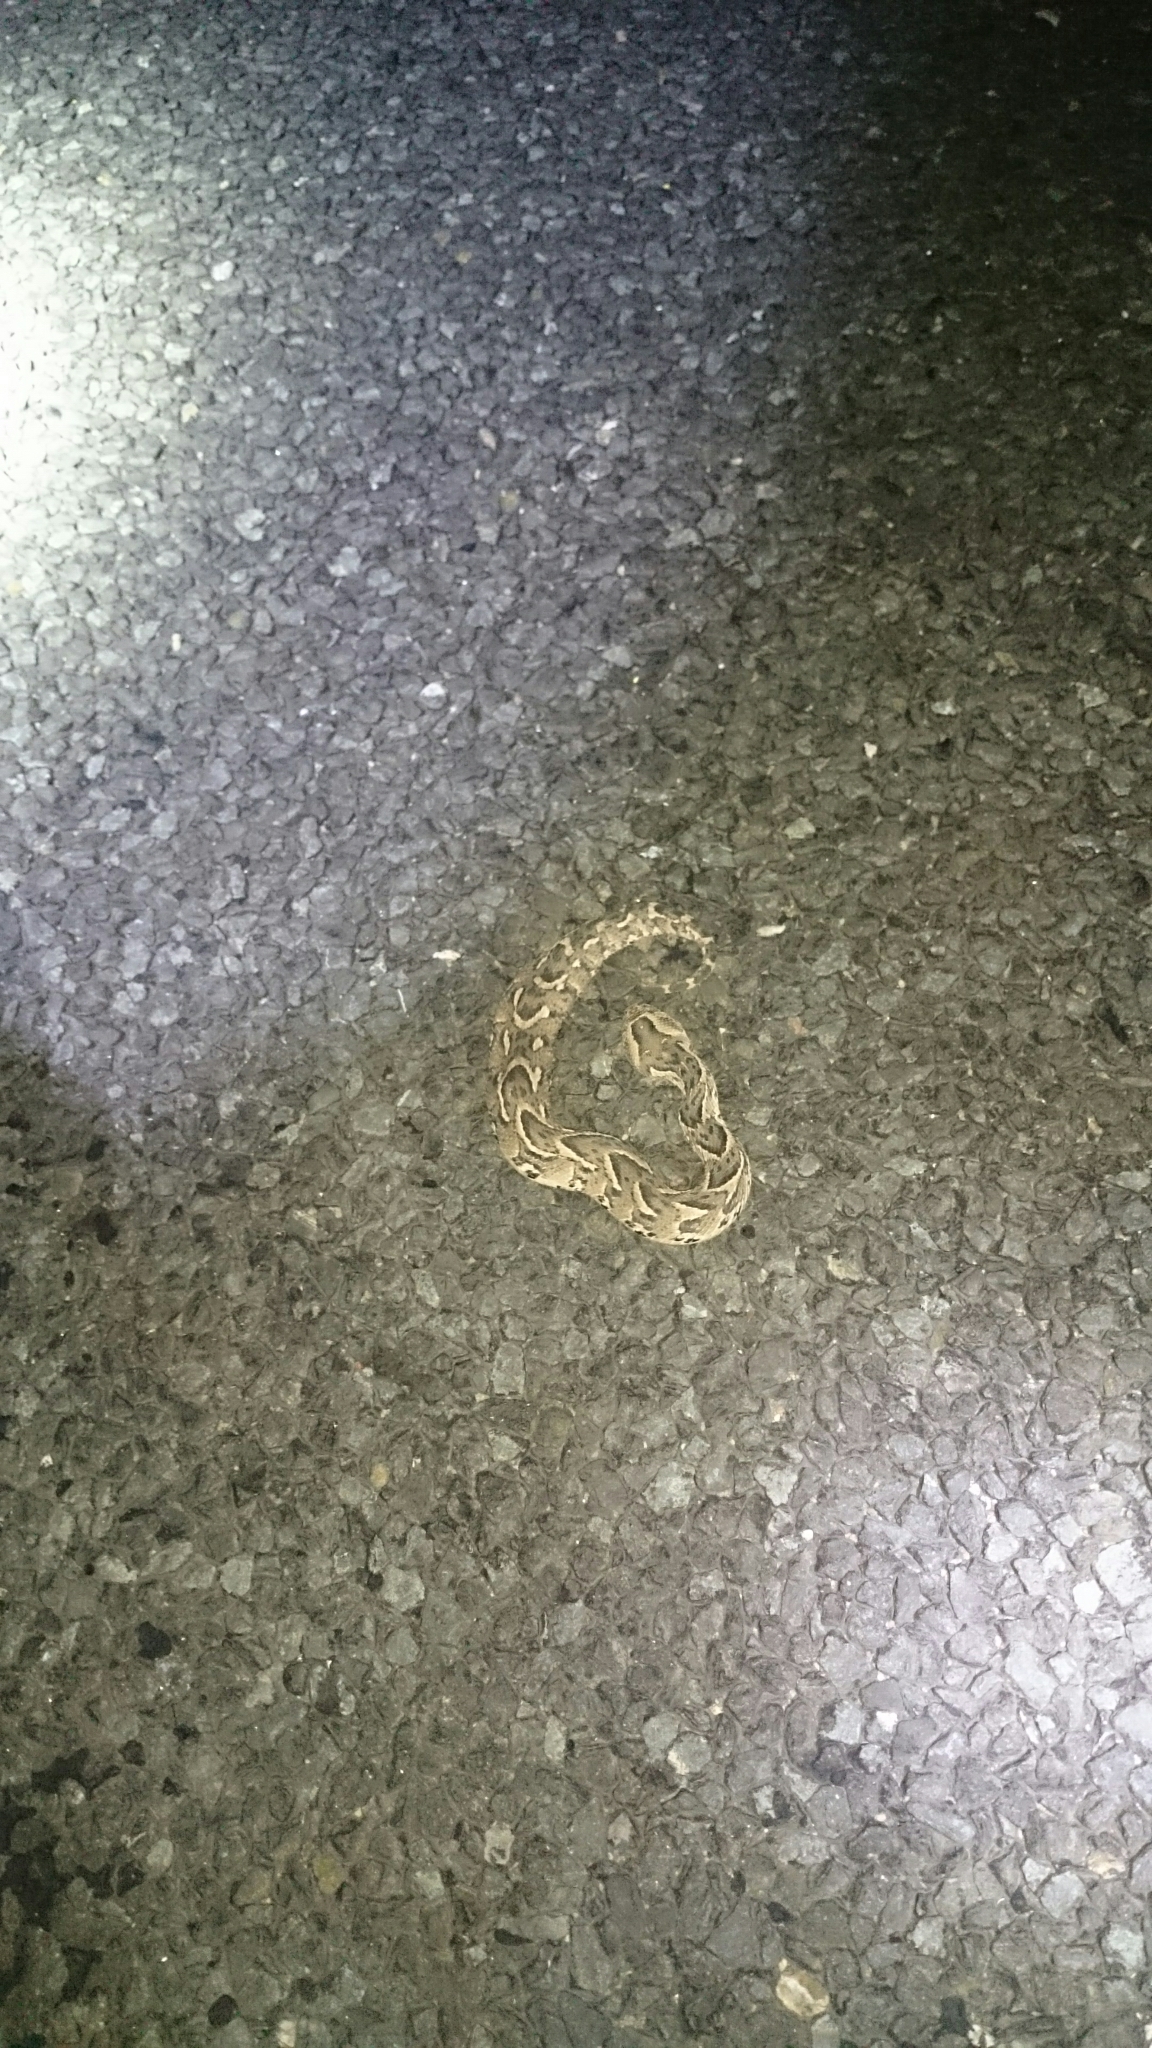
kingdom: Animalia
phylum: Chordata
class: Squamata
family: Viperidae
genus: Bitis
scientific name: Bitis arietans
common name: Puff adder
